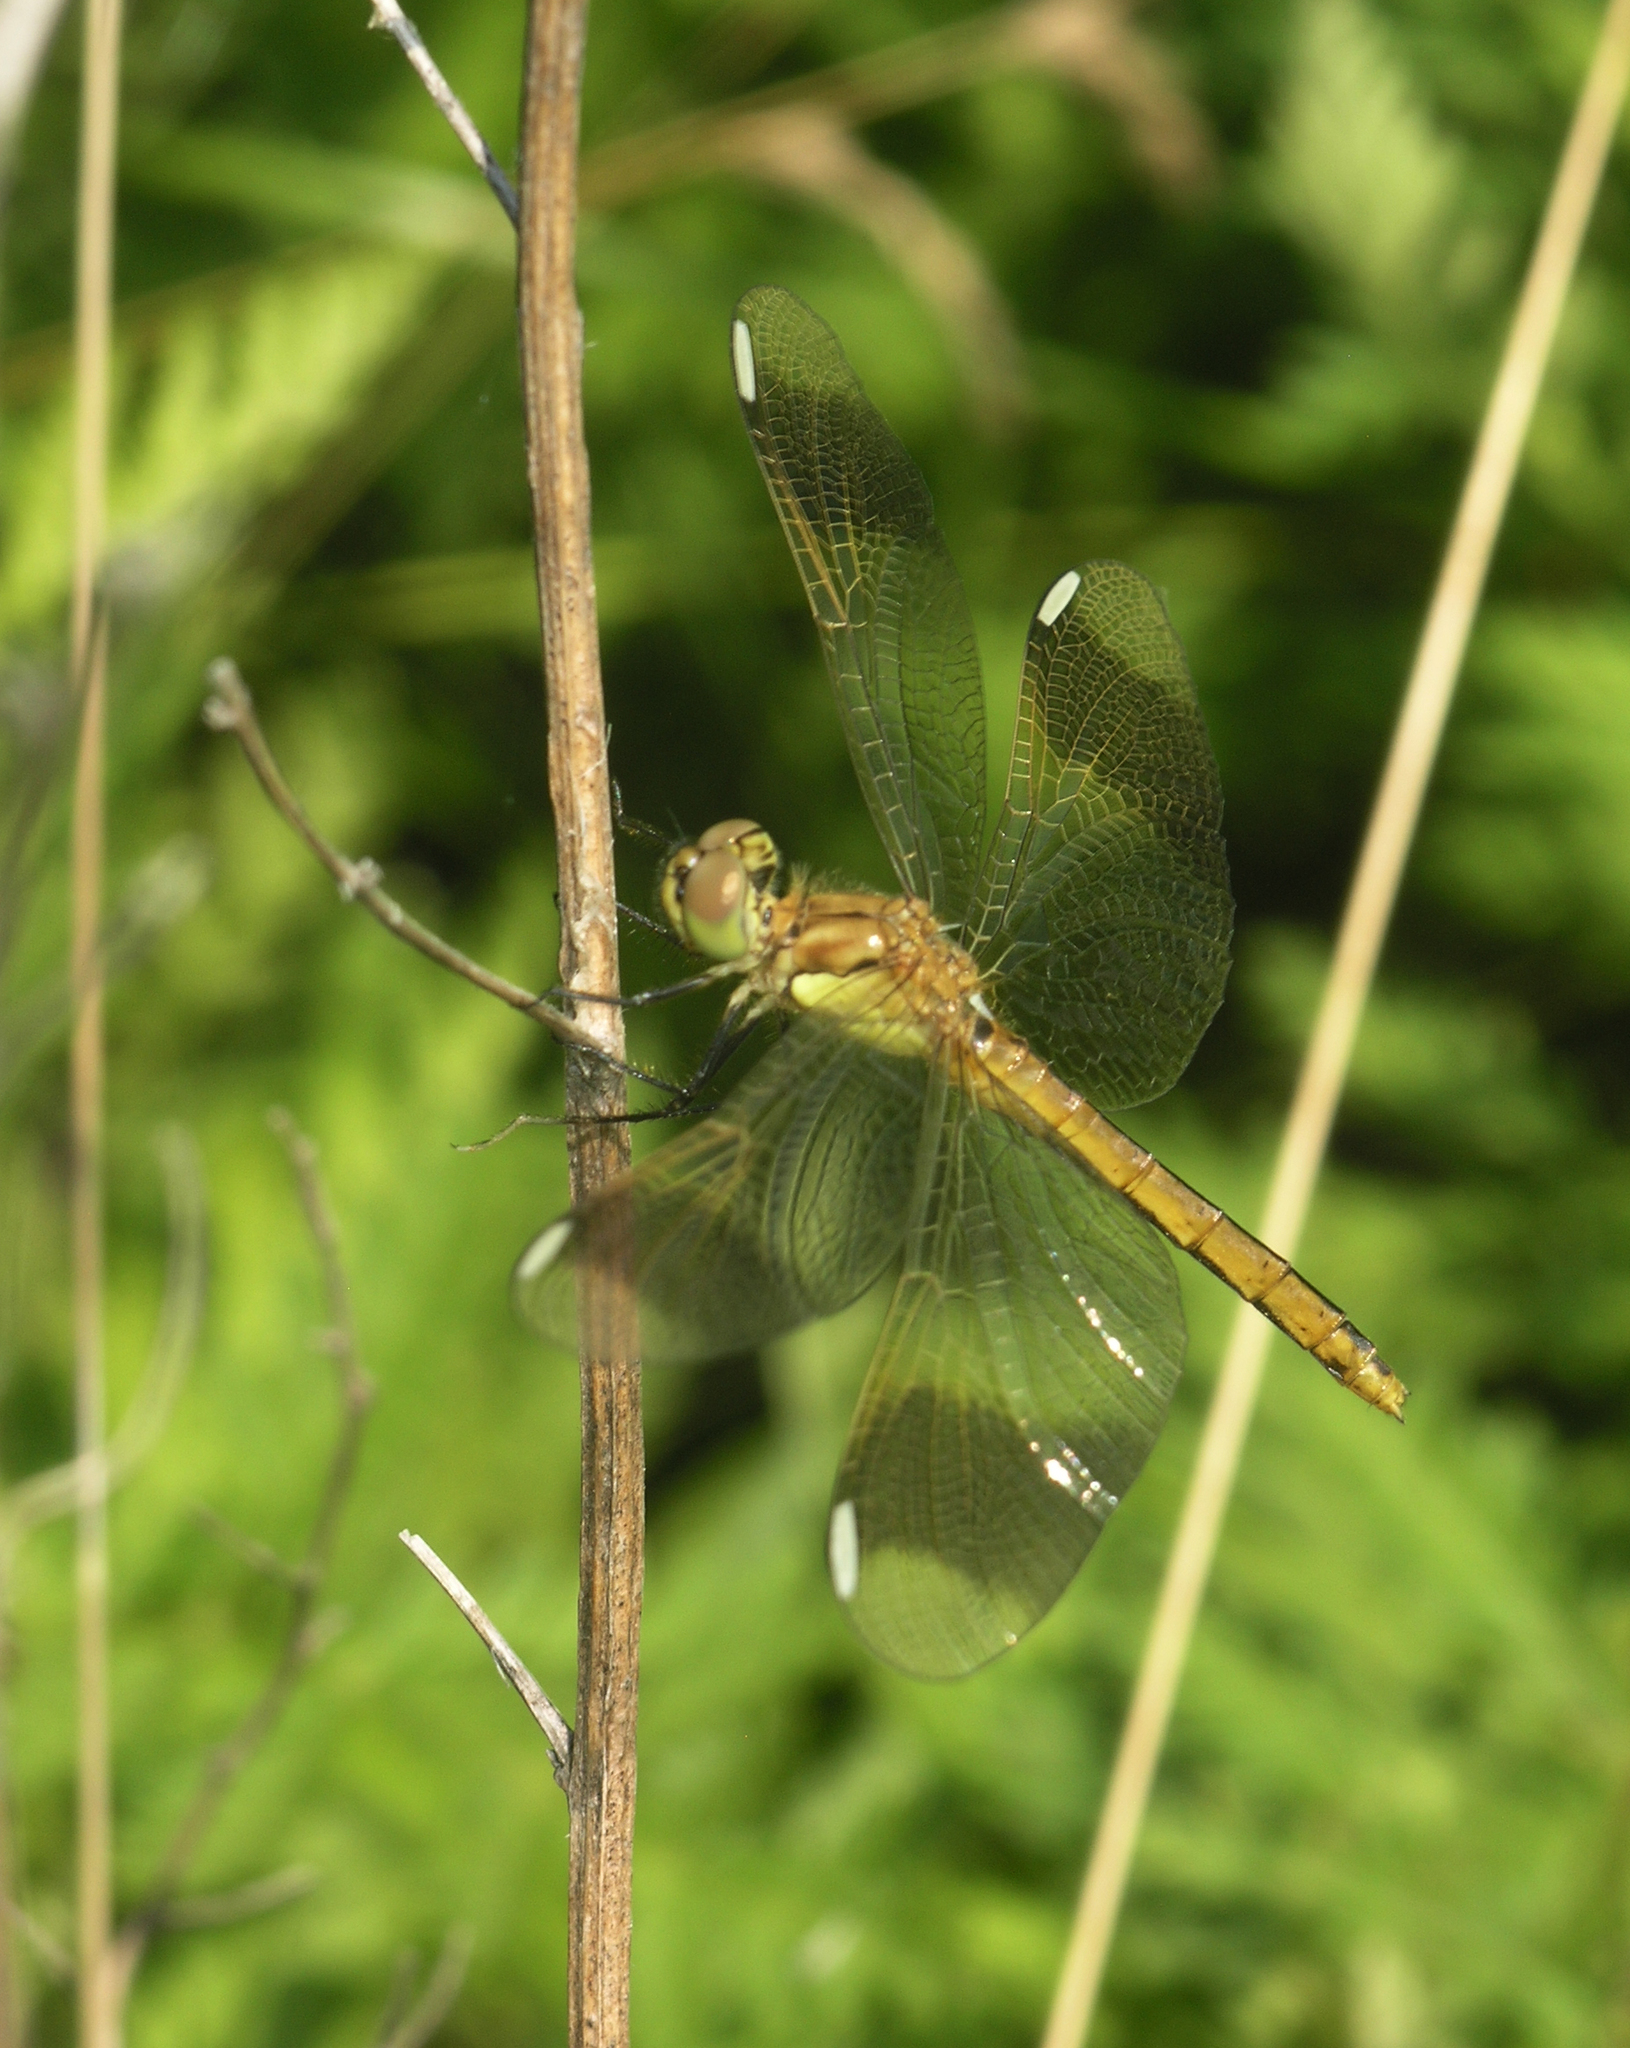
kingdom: Animalia
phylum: Arthropoda
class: Insecta
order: Odonata
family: Libellulidae
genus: Sympetrum
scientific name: Sympetrum pedemontanum
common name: Banded darter
